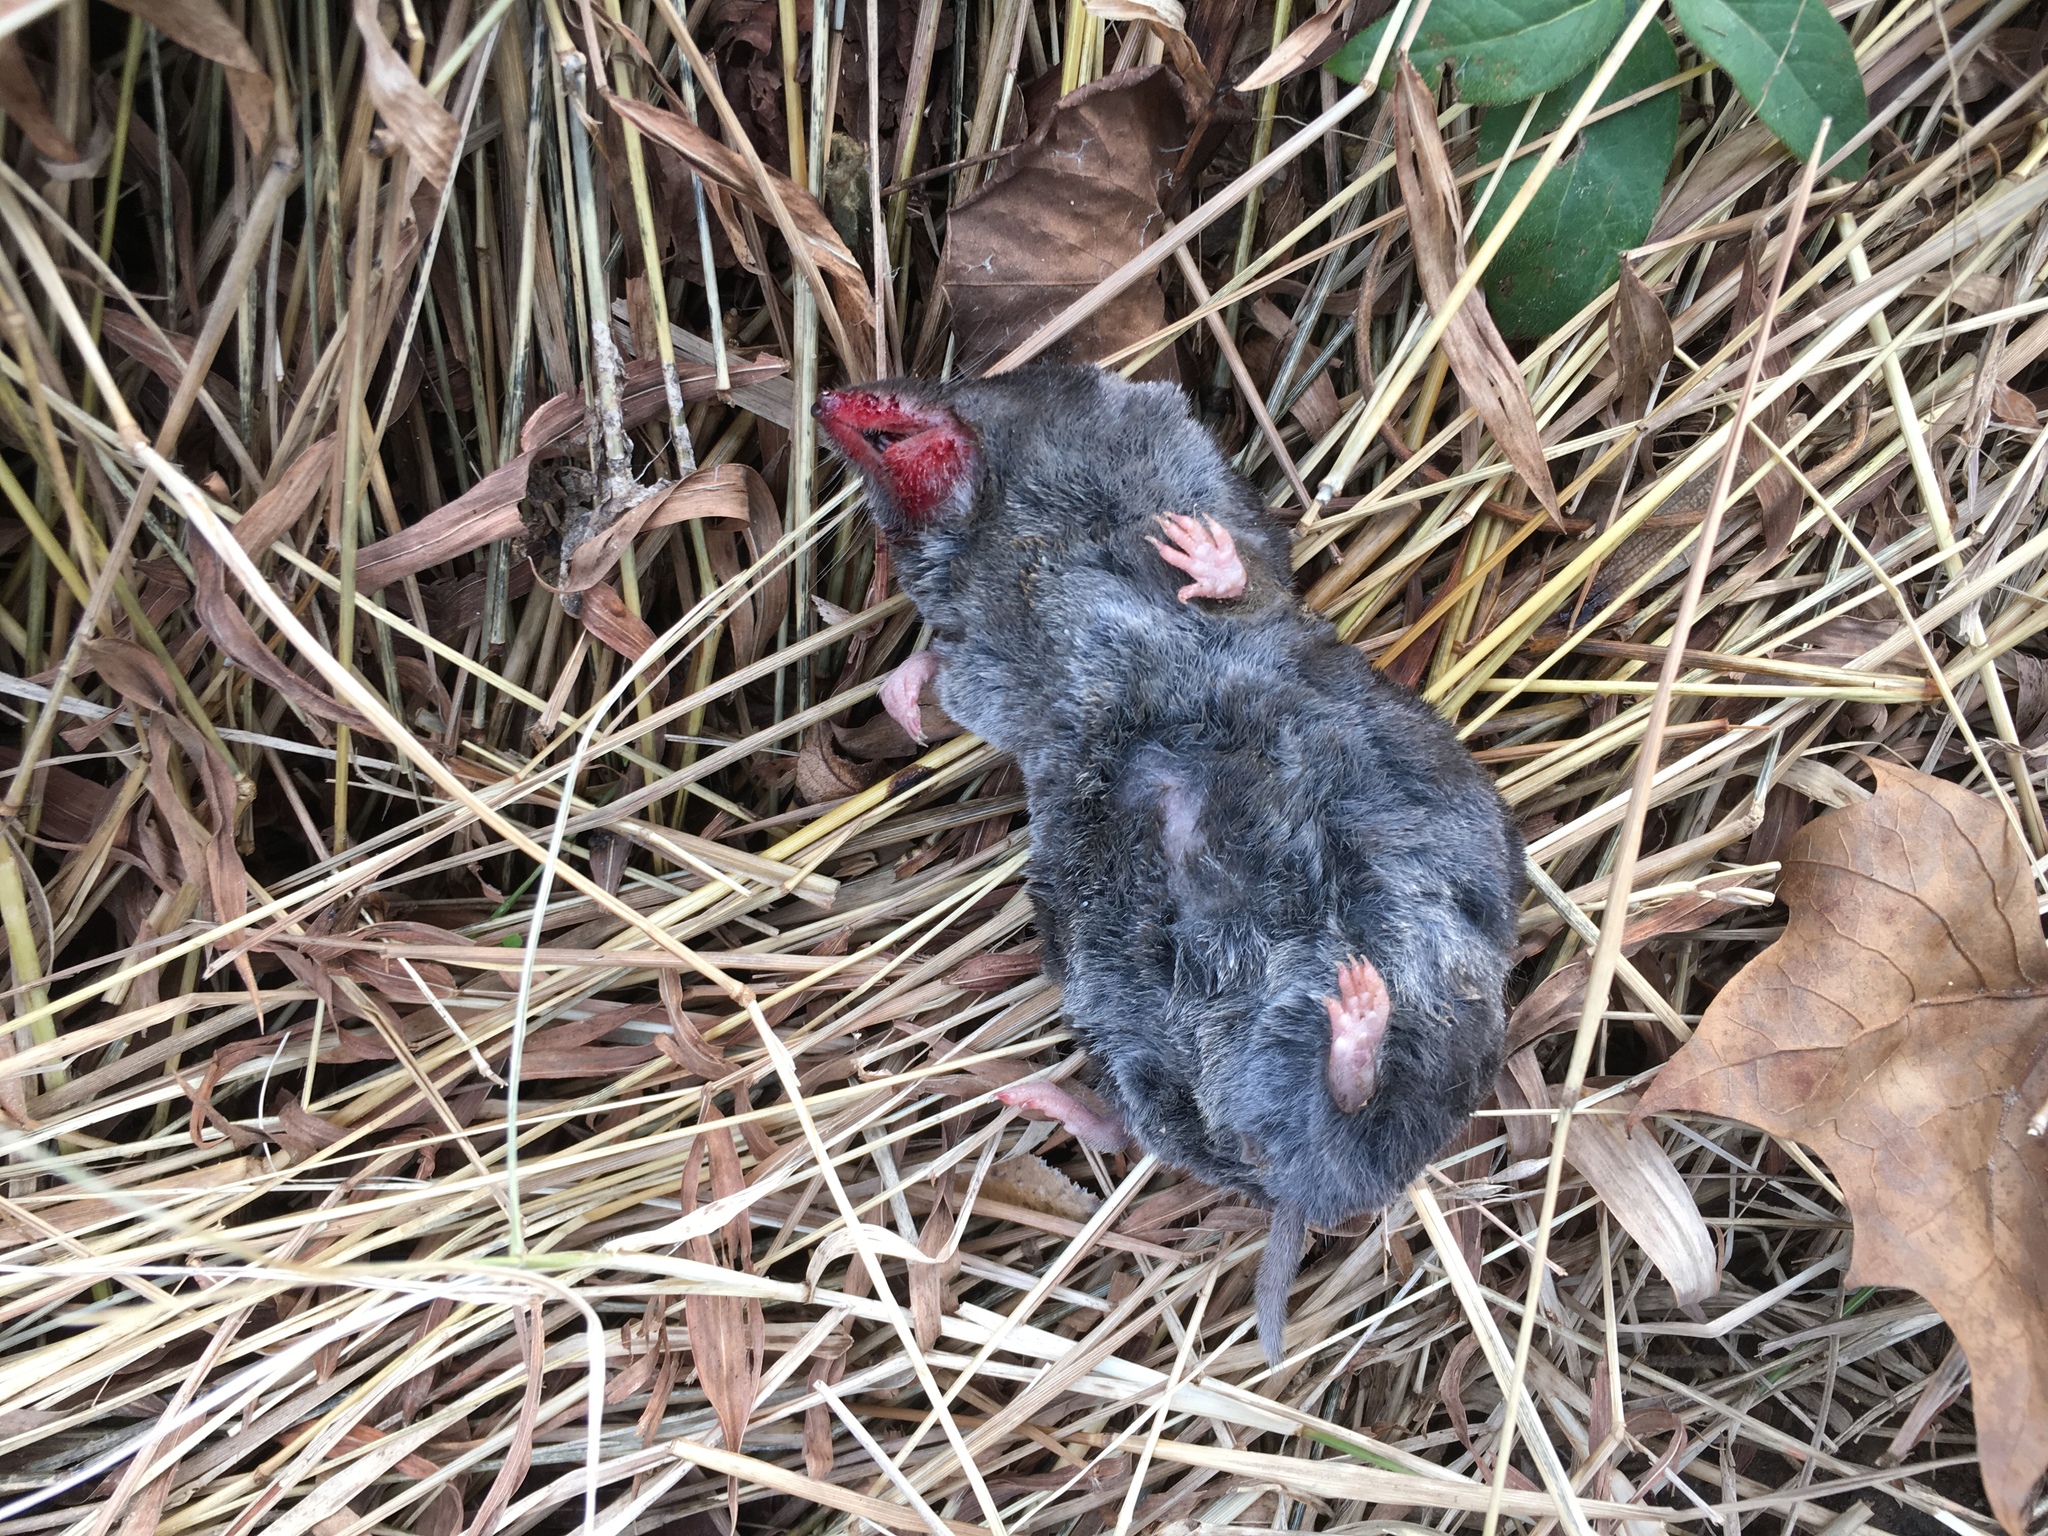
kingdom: Animalia
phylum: Chordata
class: Mammalia
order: Soricomorpha
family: Soricidae
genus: Blarina
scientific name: Blarina brevicauda
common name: Northern short-tailed shrew
